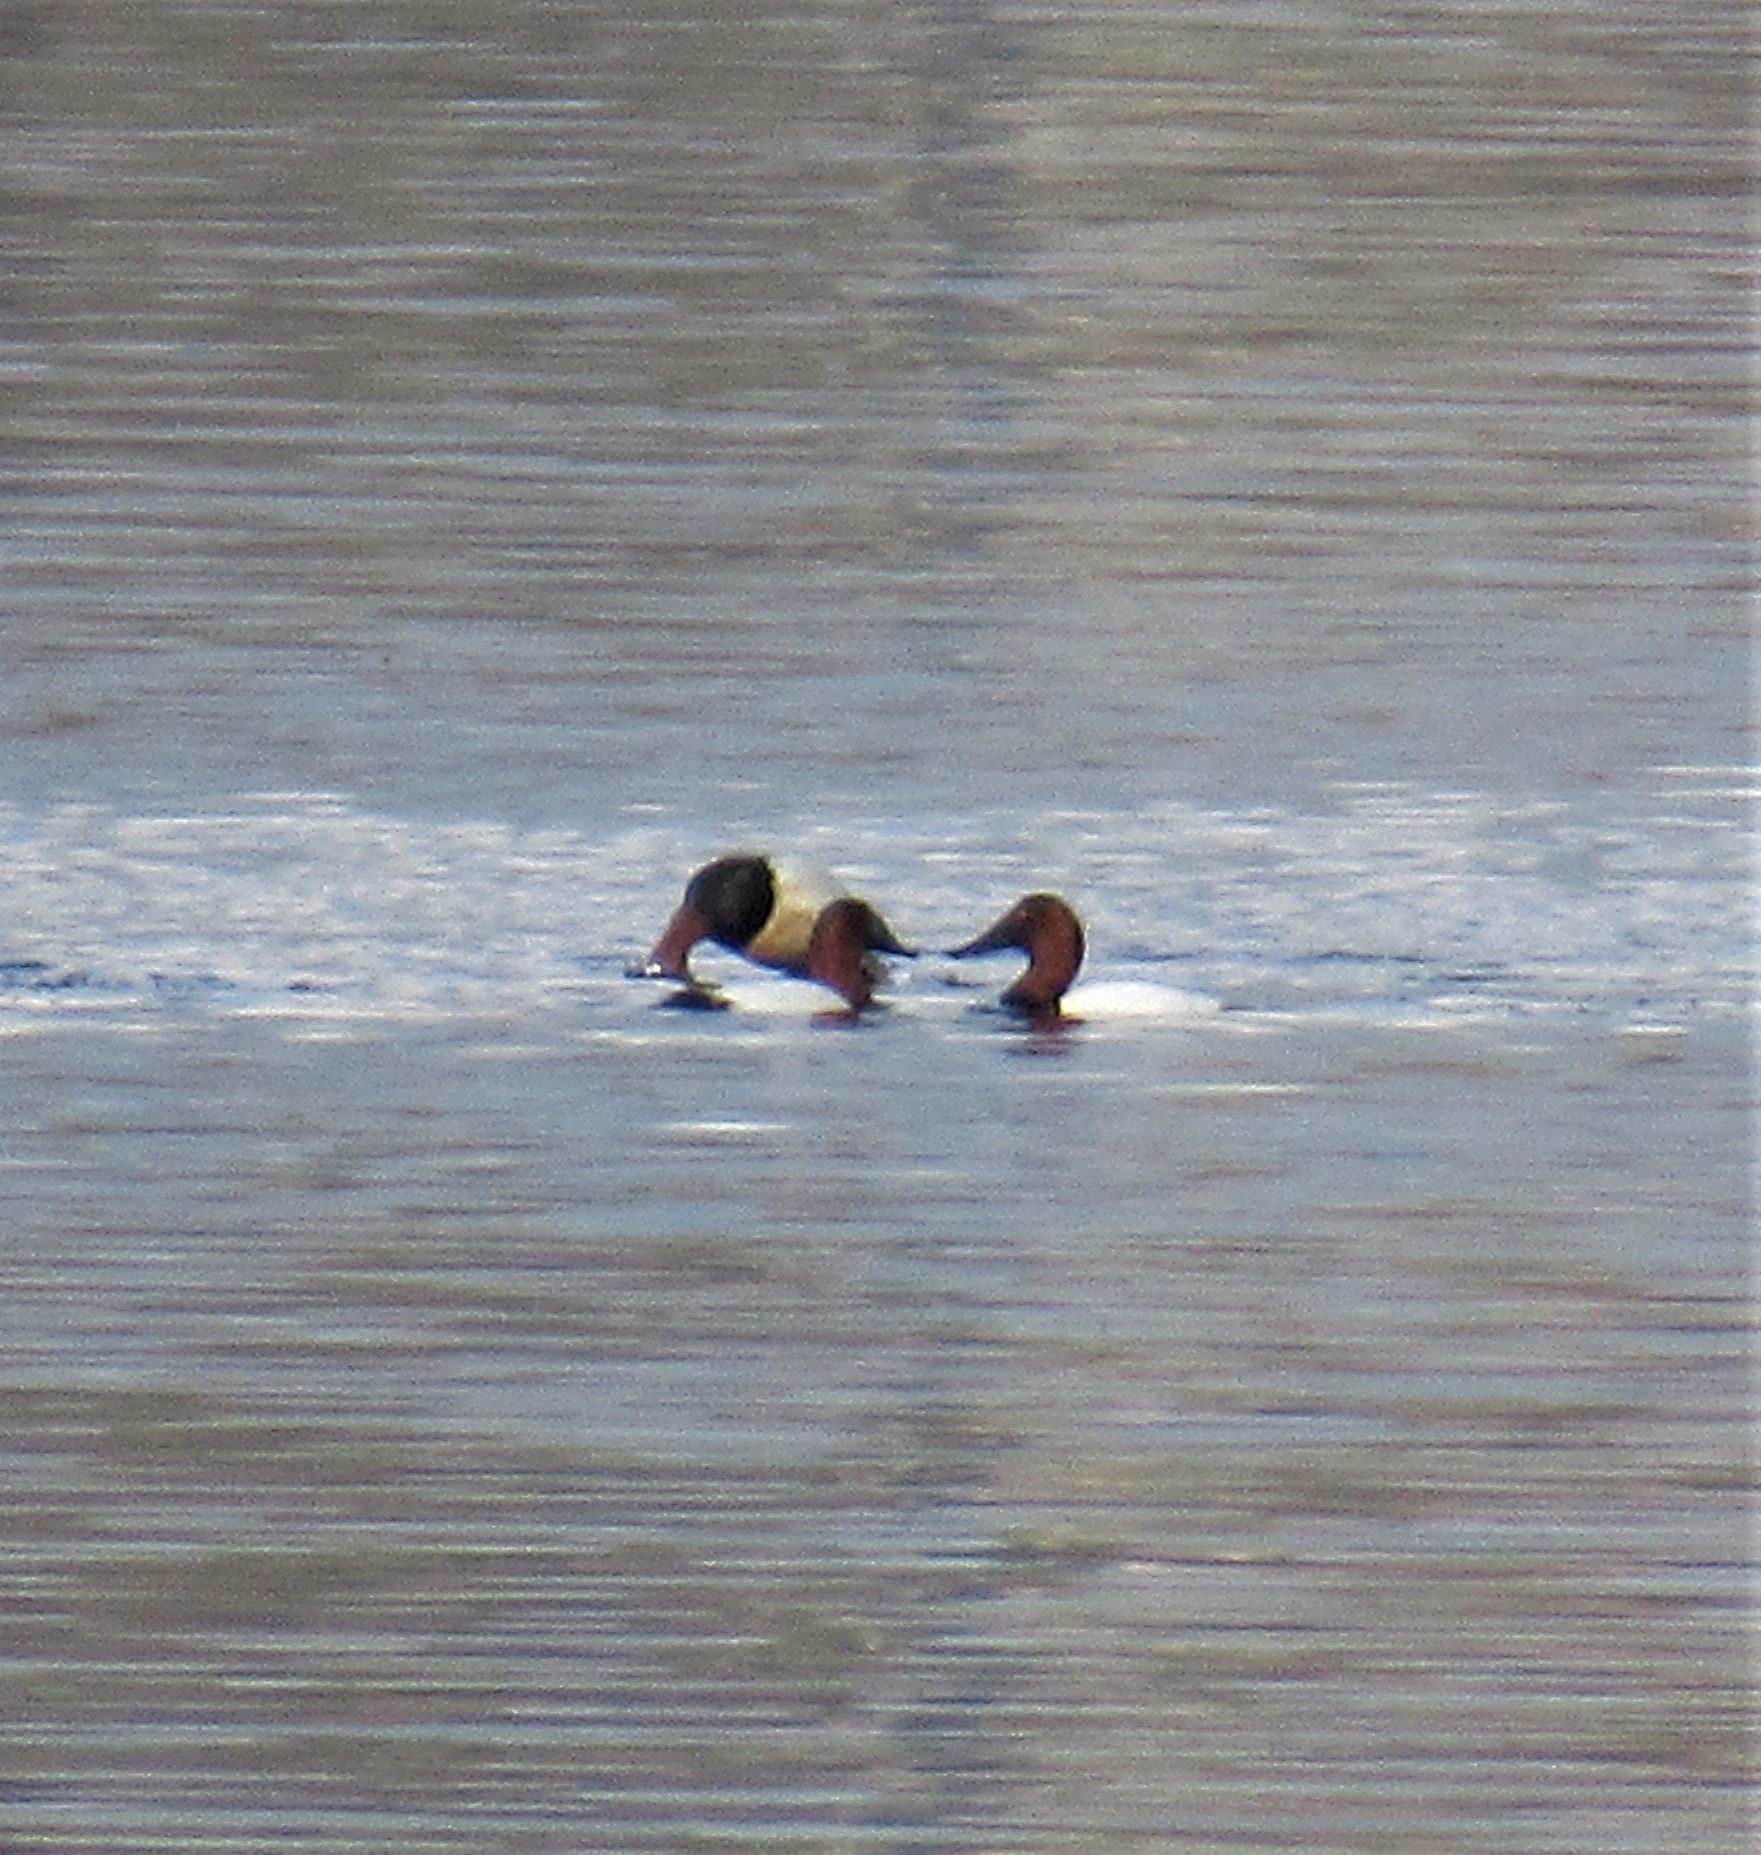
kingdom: Animalia
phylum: Chordata
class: Aves
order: Anseriformes
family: Anatidae
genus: Aythya
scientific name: Aythya valisineria
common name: Canvasback
